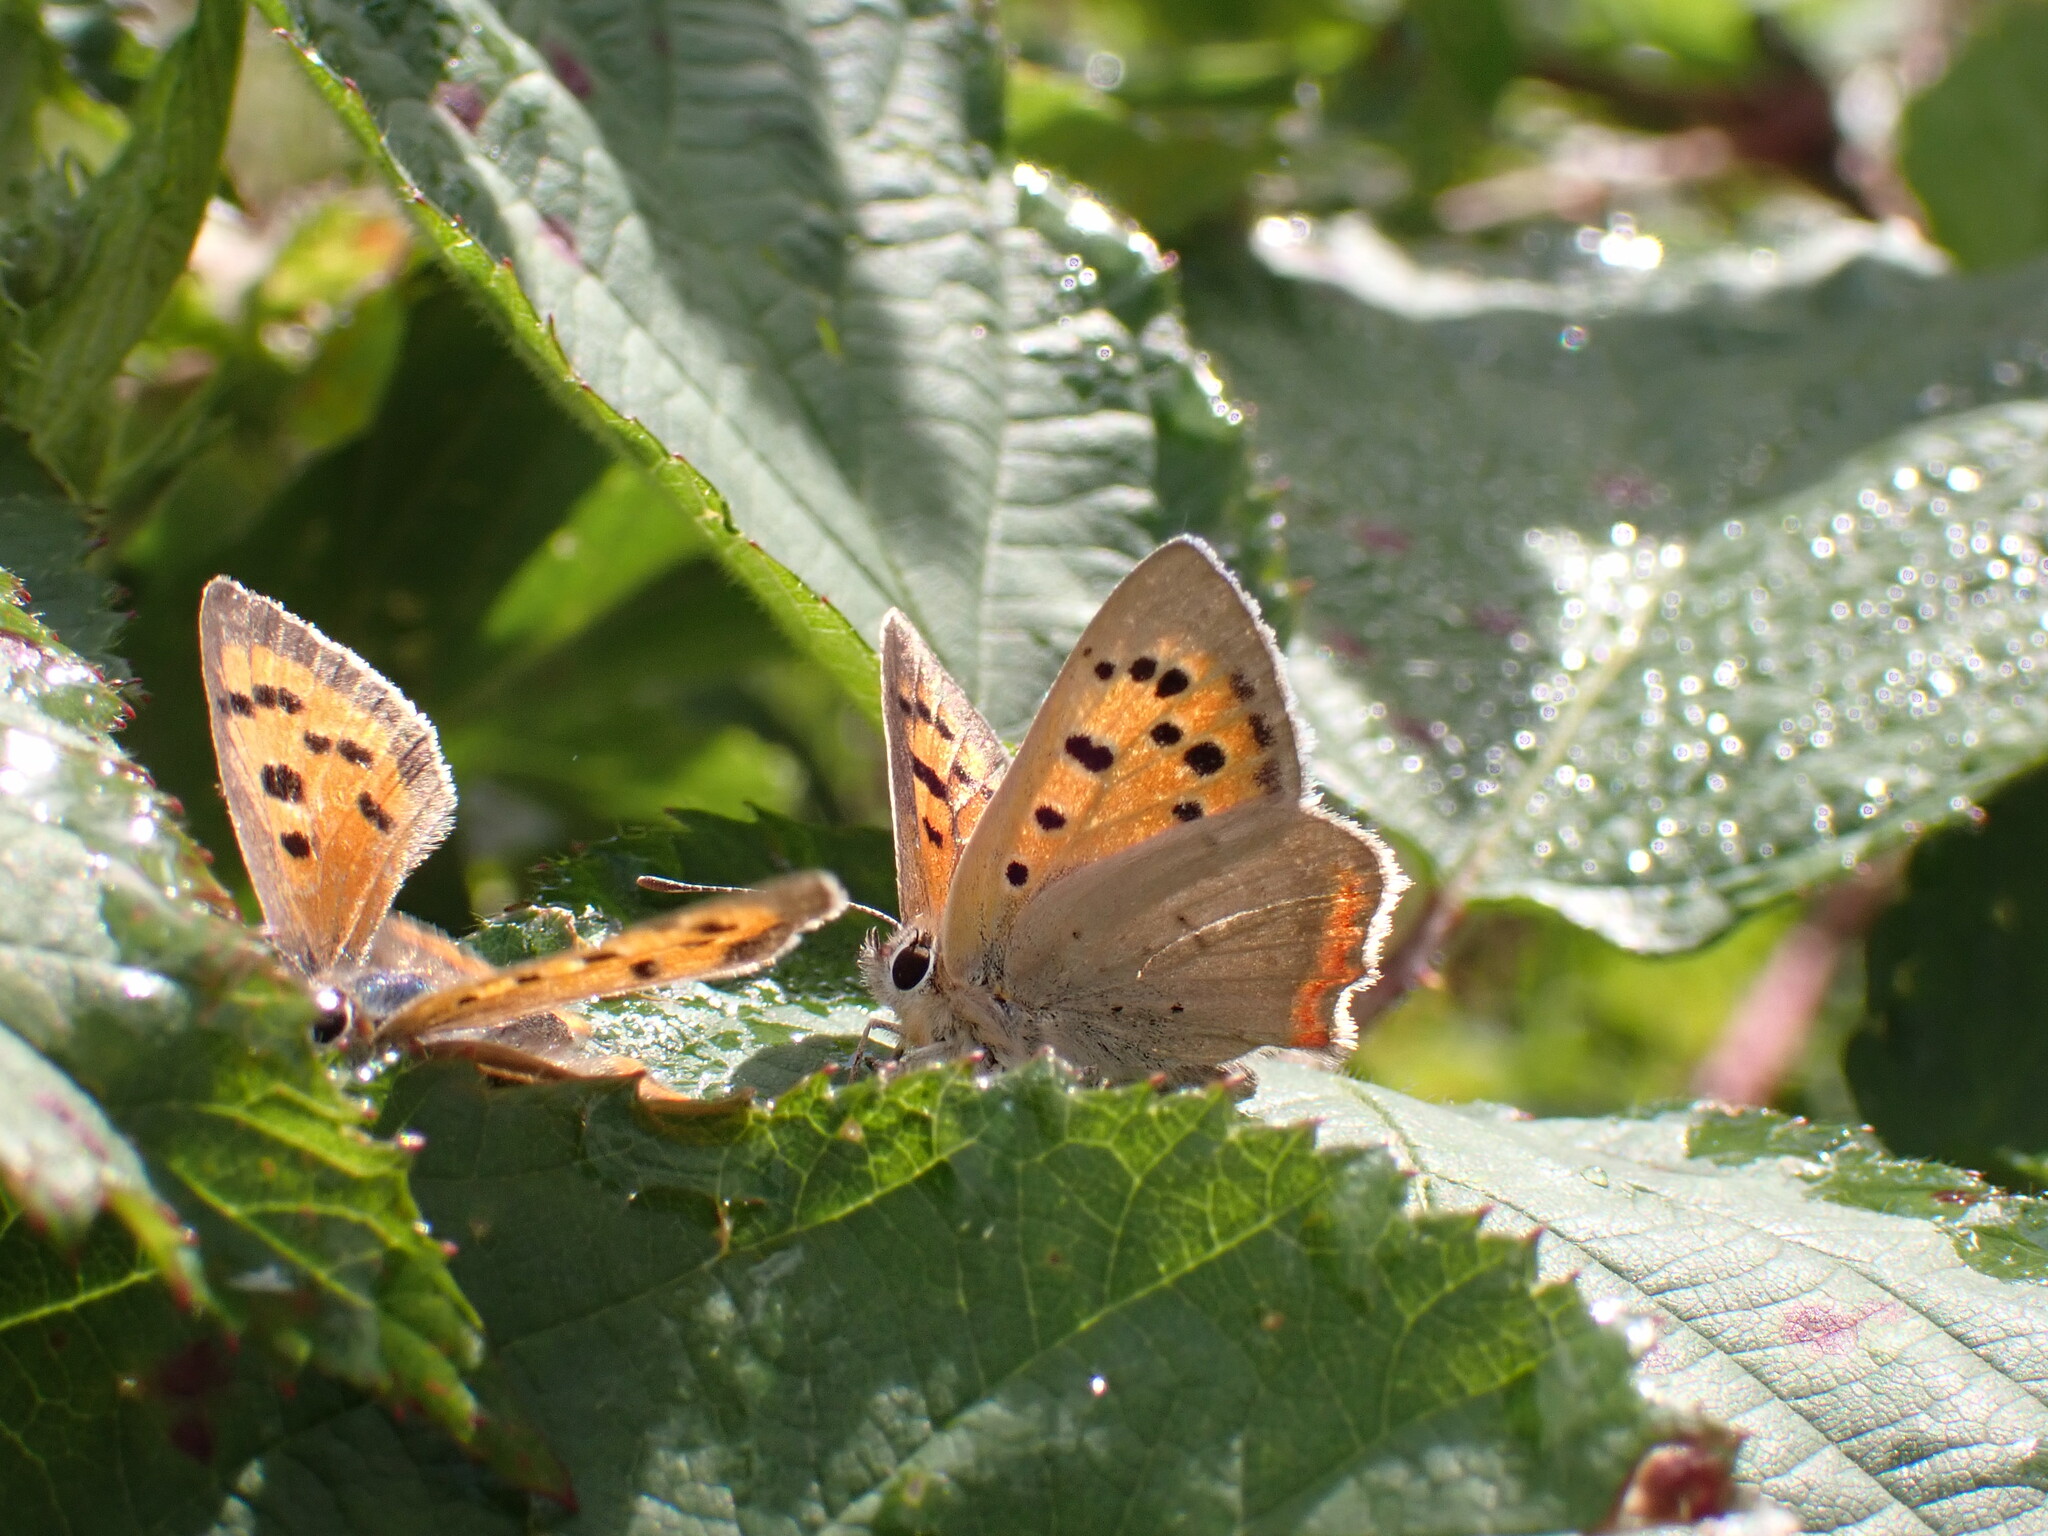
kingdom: Animalia
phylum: Arthropoda
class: Insecta
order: Lepidoptera
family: Lycaenidae
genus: Lycaena
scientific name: Lycaena phlaeas
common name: Small copper
